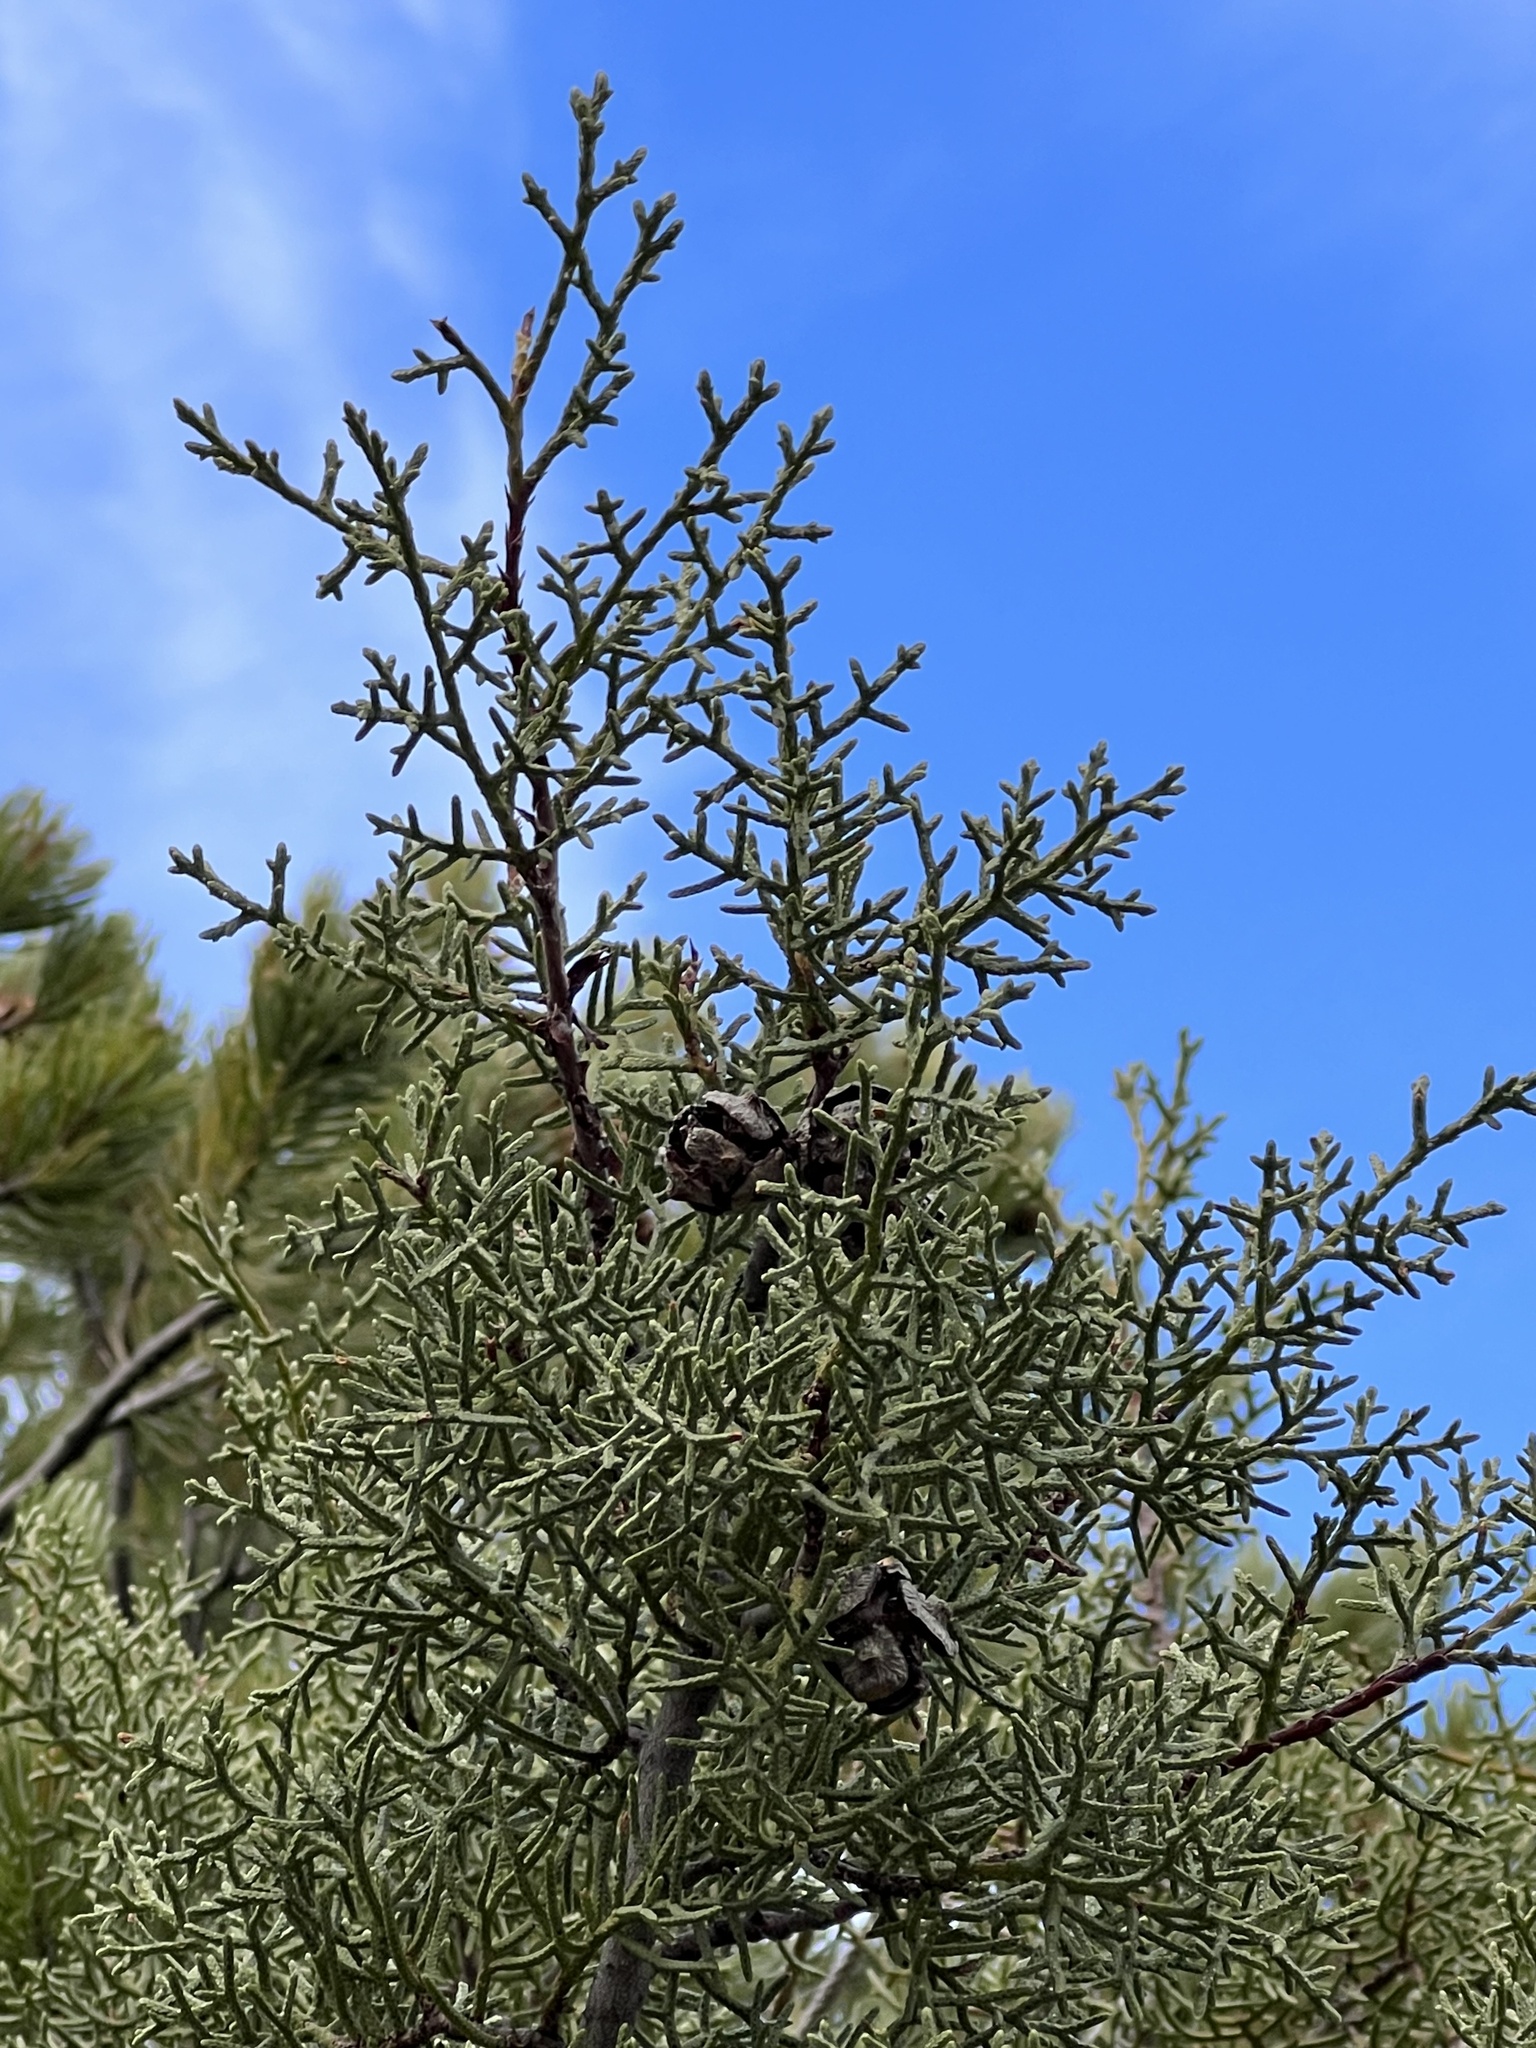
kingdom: Plantae
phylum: Tracheophyta
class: Pinopsida
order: Pinales
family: Cupressaceae
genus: Cupressus
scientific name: Cupressus arizonica
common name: Arizona cypress
